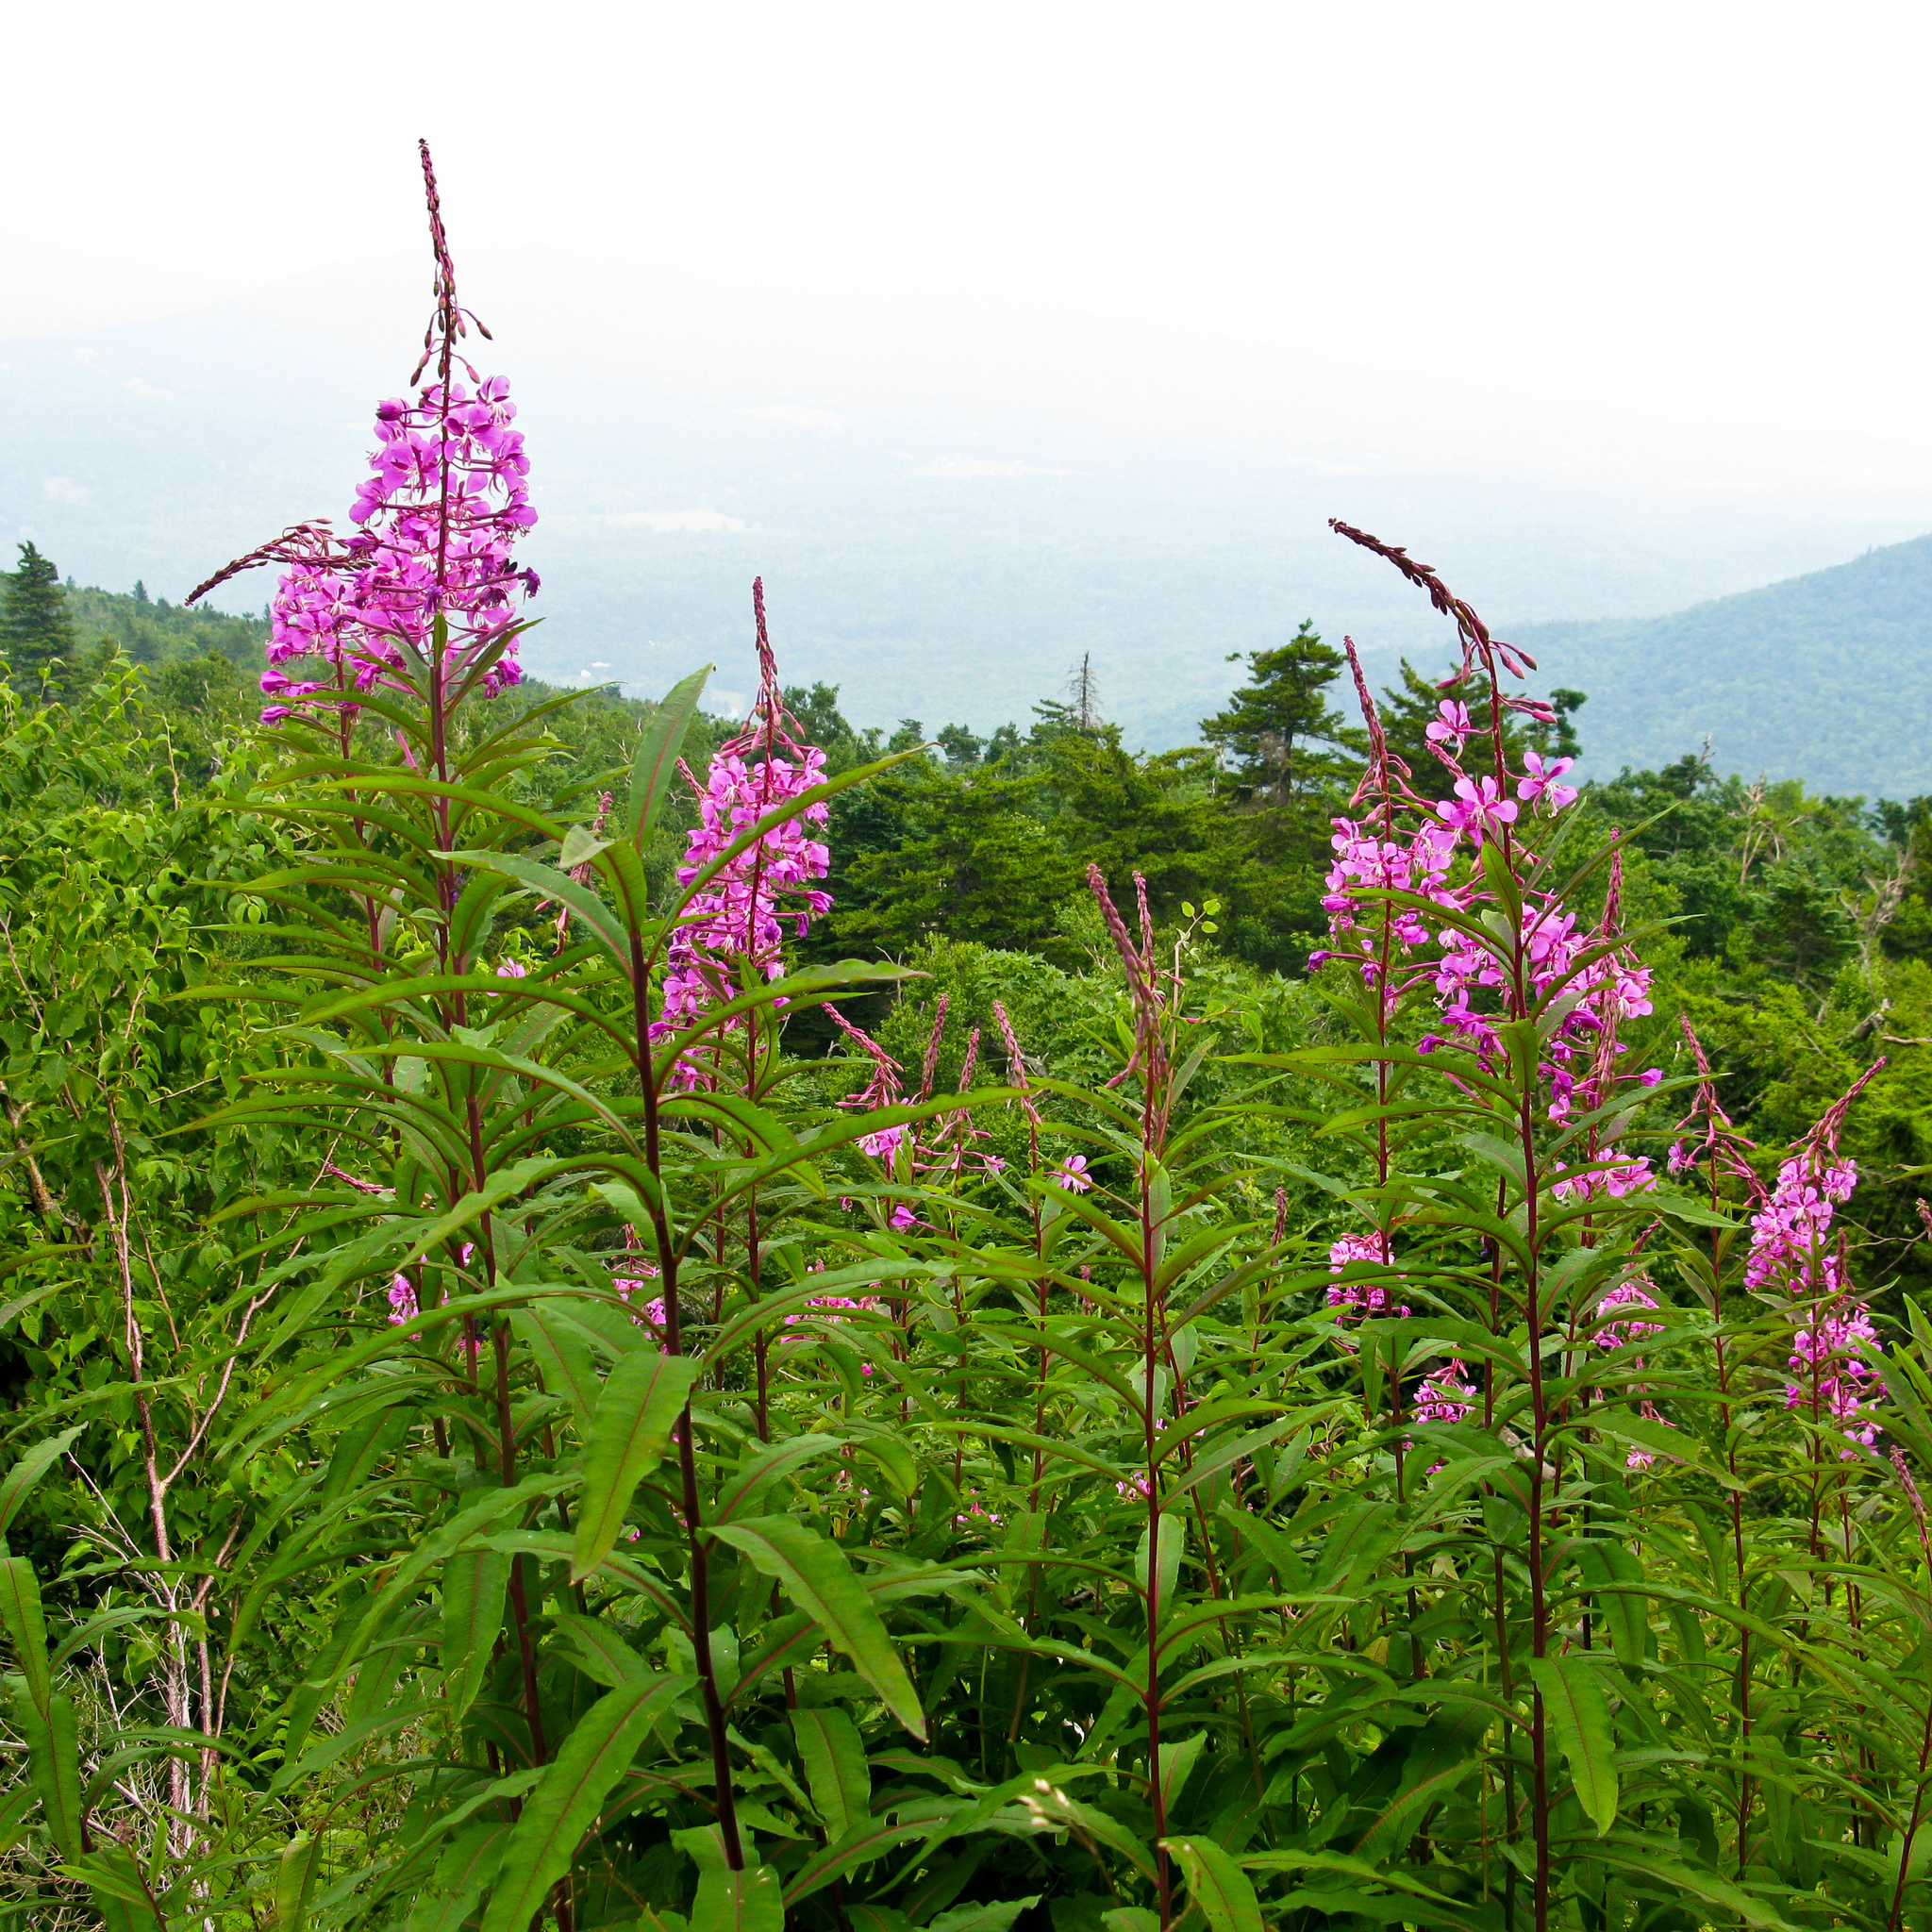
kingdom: Plantae
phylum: Tracheophyta
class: Magnoliopsida
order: Myrtales
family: Onagraceae
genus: Chamaenerion
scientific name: Chamaenerion angustifolium
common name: Fireweed
